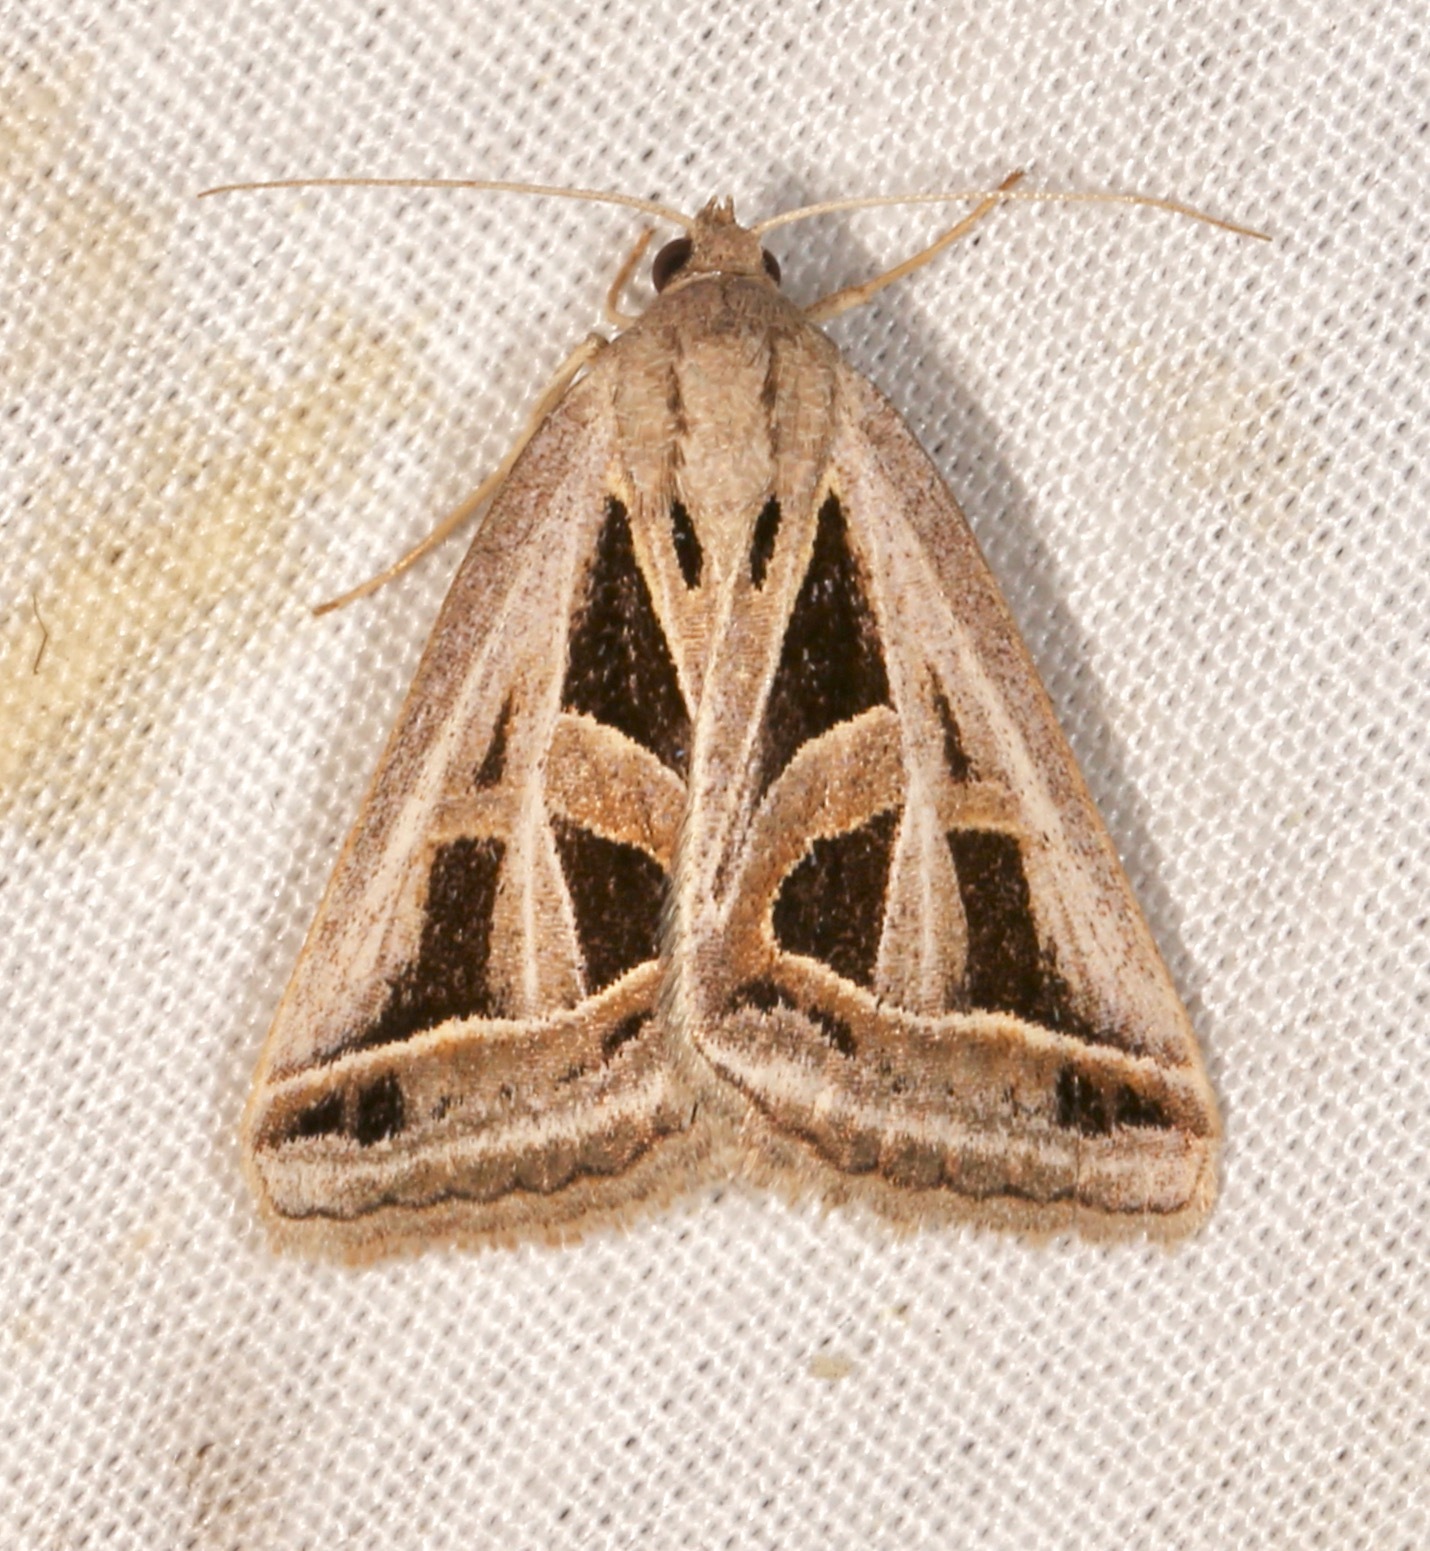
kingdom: Animalia
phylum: Arthropoda
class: Insecta
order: Lepidoptera
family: Erebidae
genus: Callistege
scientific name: Callistege diagonalis
